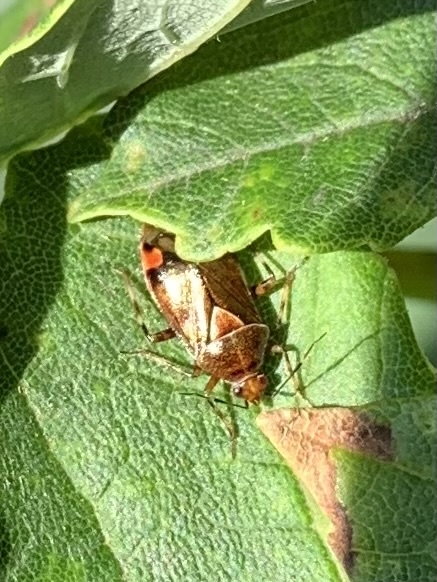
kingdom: Animalia
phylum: Arthropoda
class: Insecta
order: Hemiptera
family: Miridae
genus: Deraeocoris
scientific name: Deraeocoris flavilinea
